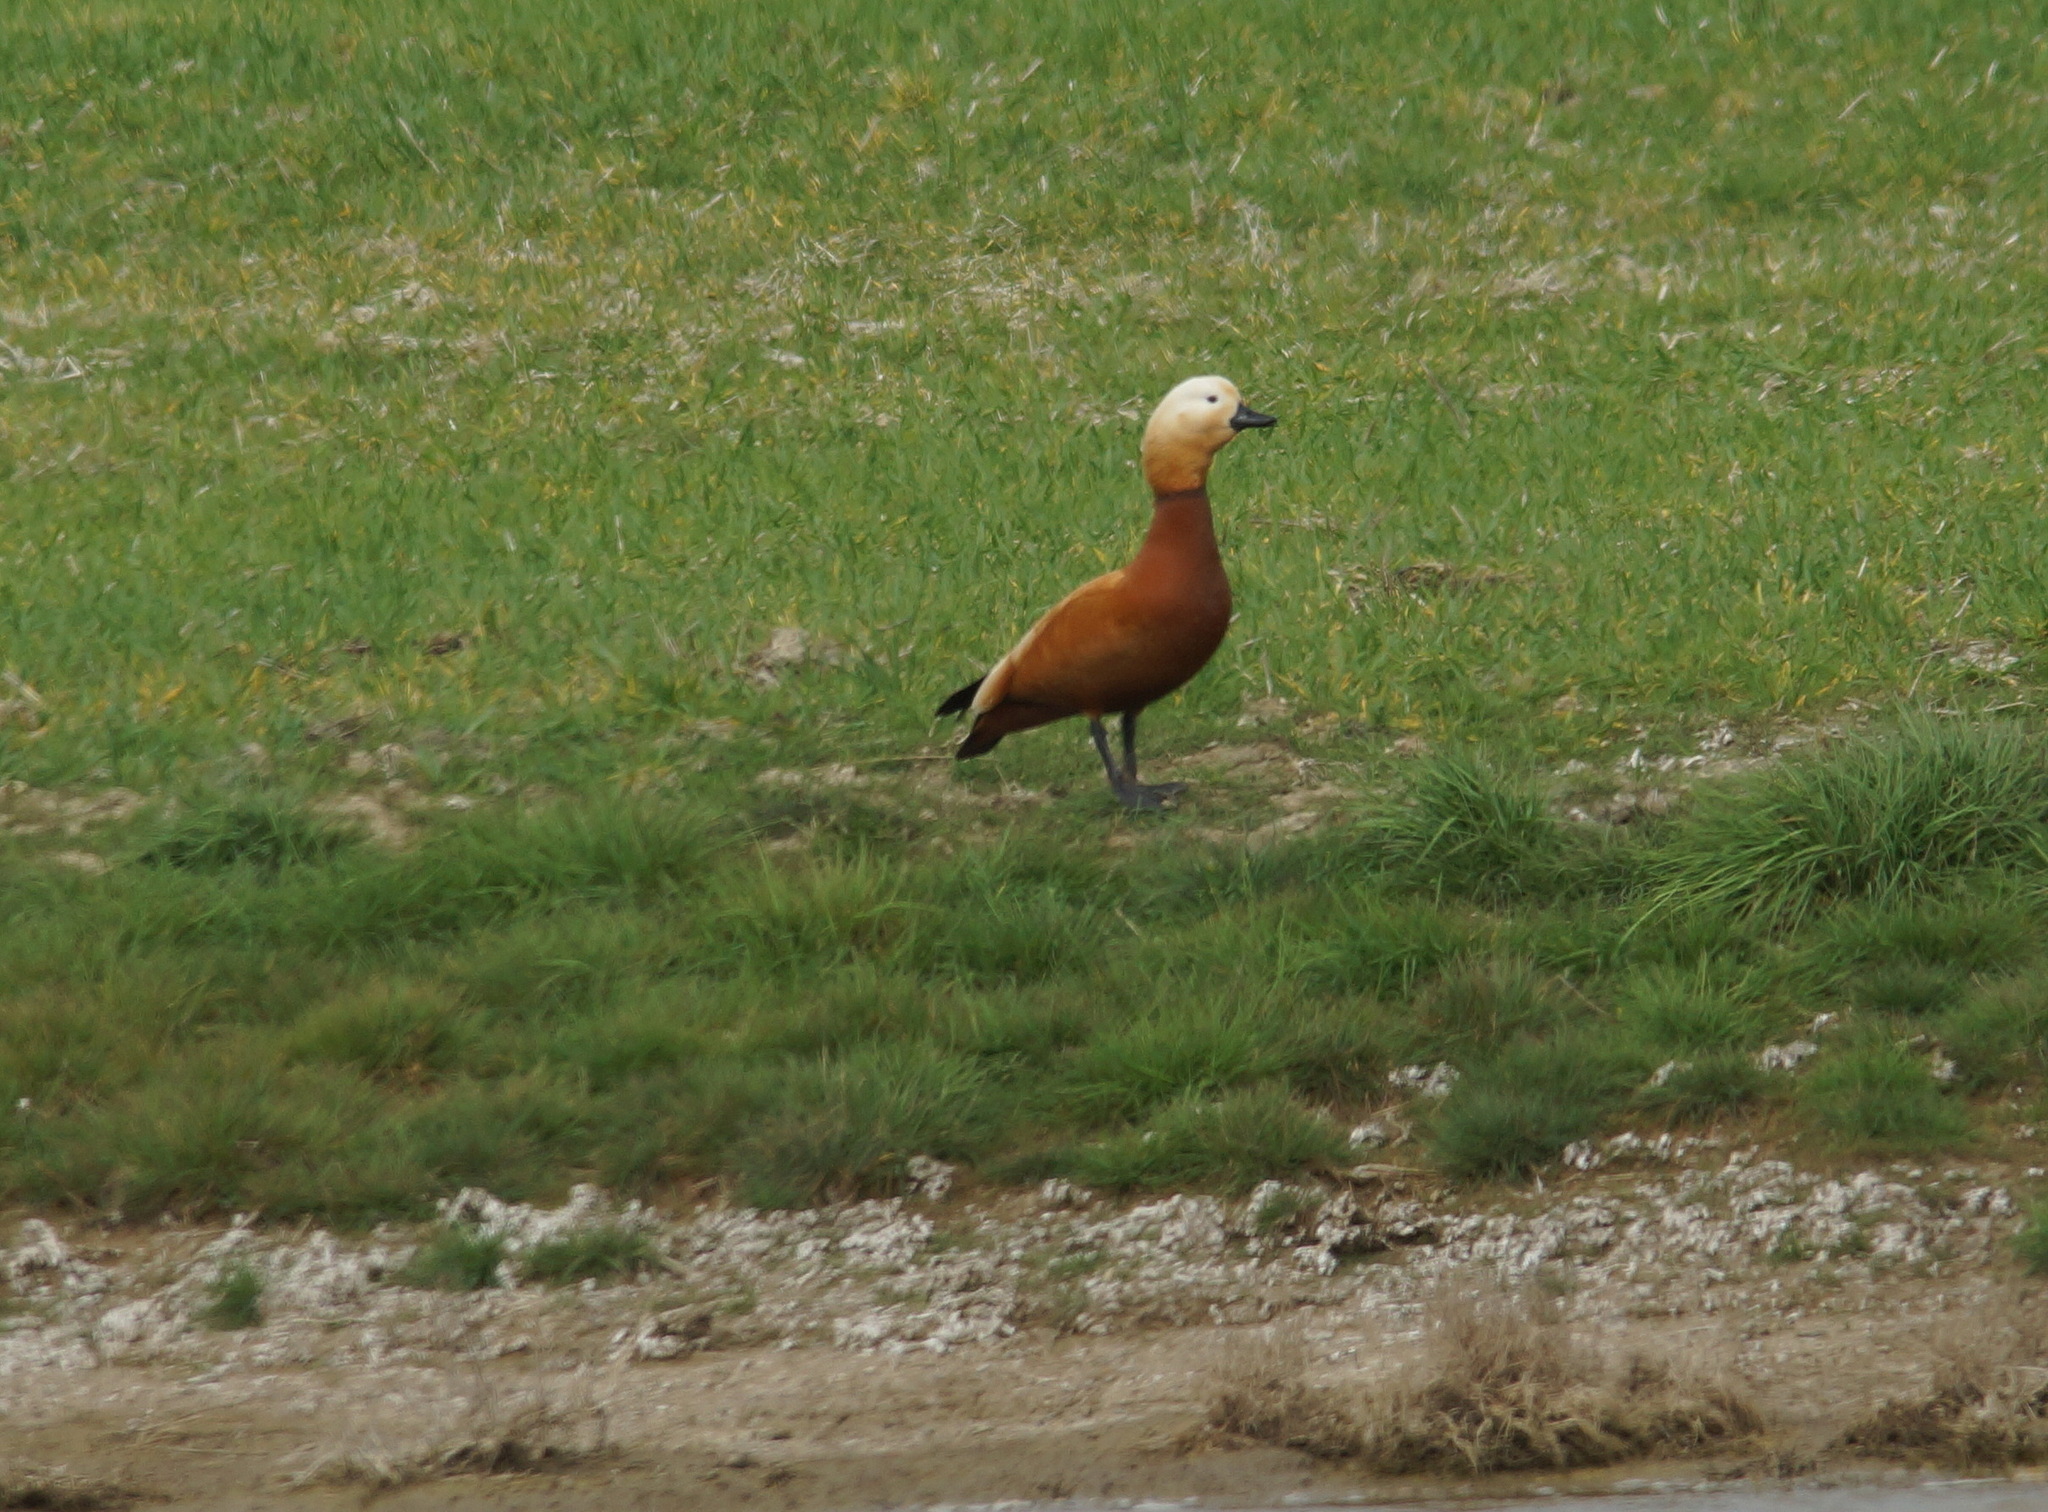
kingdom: Animalia
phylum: Chordata
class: Aves
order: Anseriformes
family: Anatidae
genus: Tadorna
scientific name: Tadorna ferruginea
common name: Ruddy shelduck
